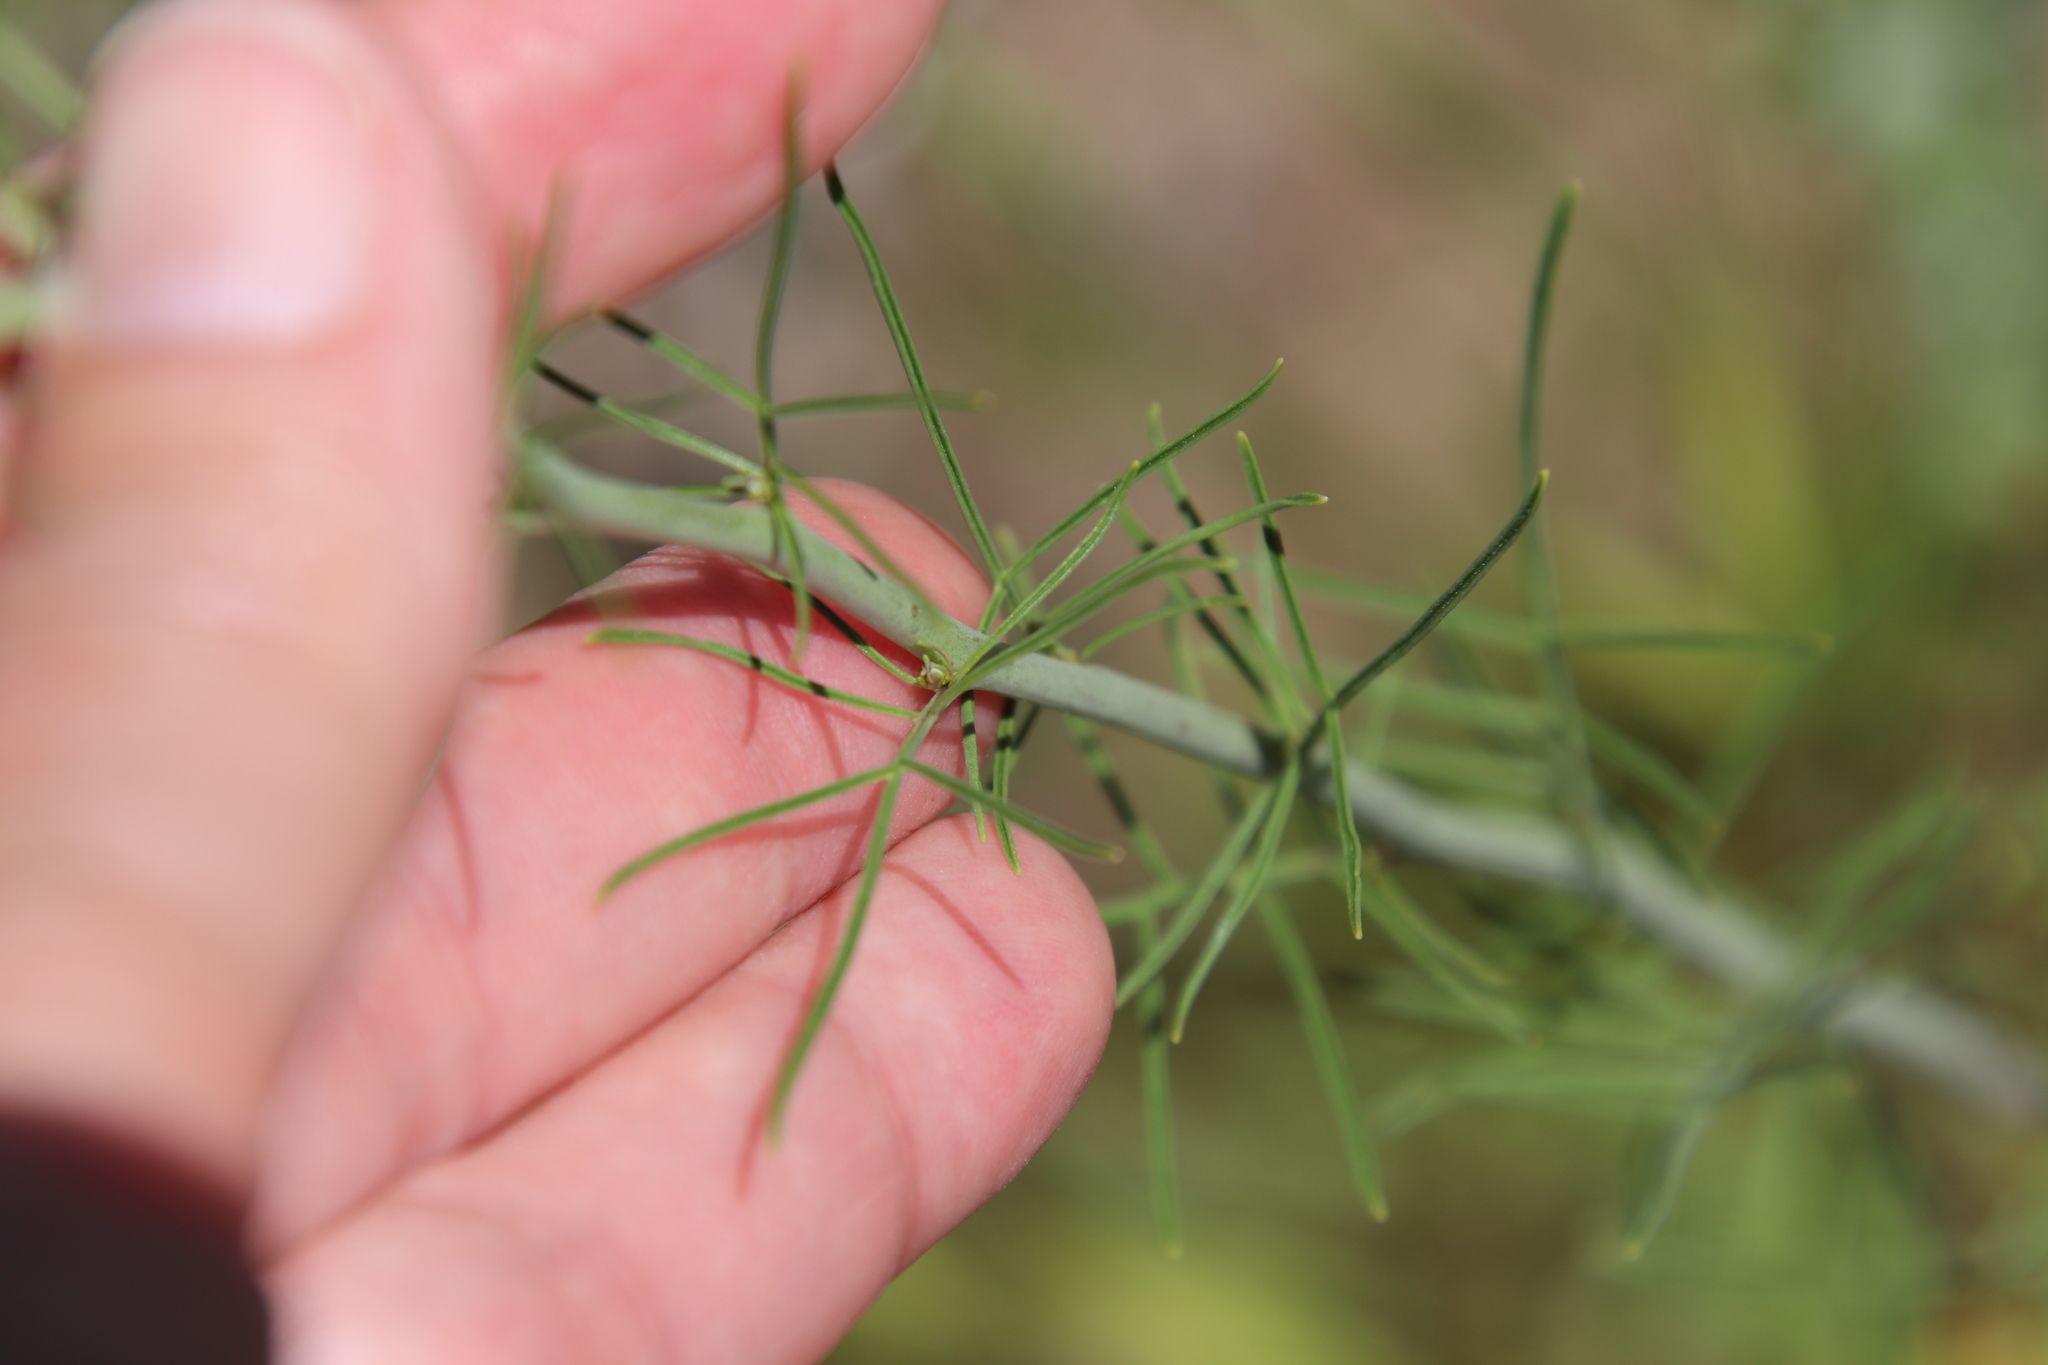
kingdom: Plantae
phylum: Tracheophyta
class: Magnoliopsida
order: Brassicales
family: Brassicaceae
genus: Sisymbrium
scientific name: Sisymbrium altissimum
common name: Tall rocket
